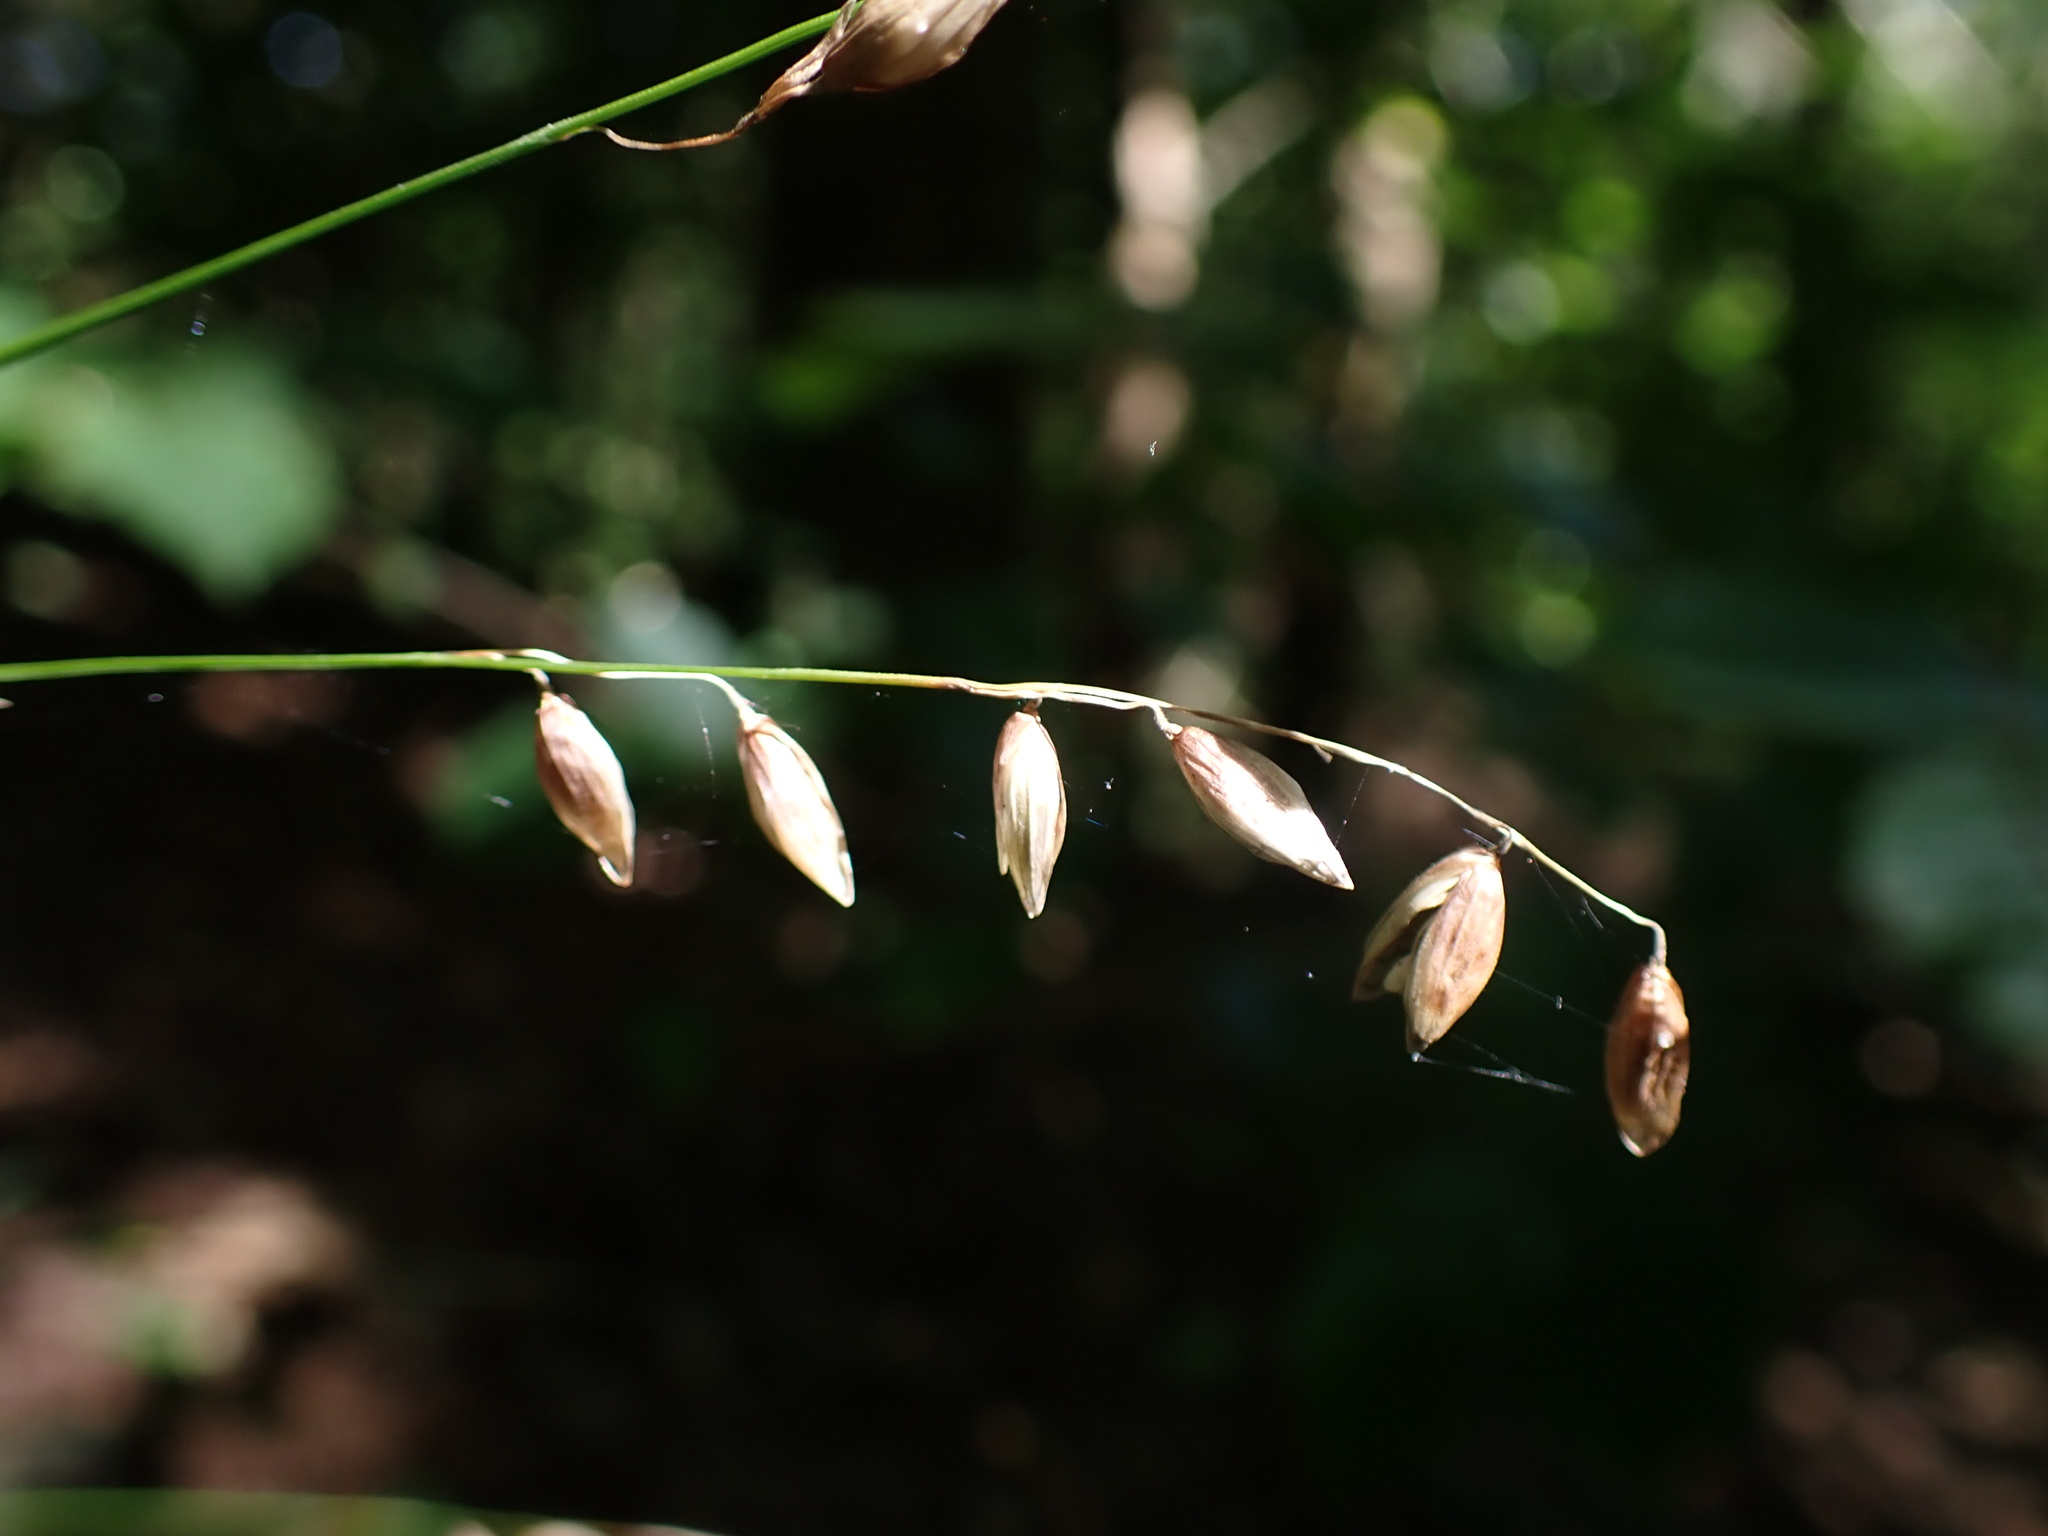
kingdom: Plantae
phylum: Tracheophyta
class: Liliopsida
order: Poales
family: Poaceae
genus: Melica
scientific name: Melica nutans
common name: Mountain melick
